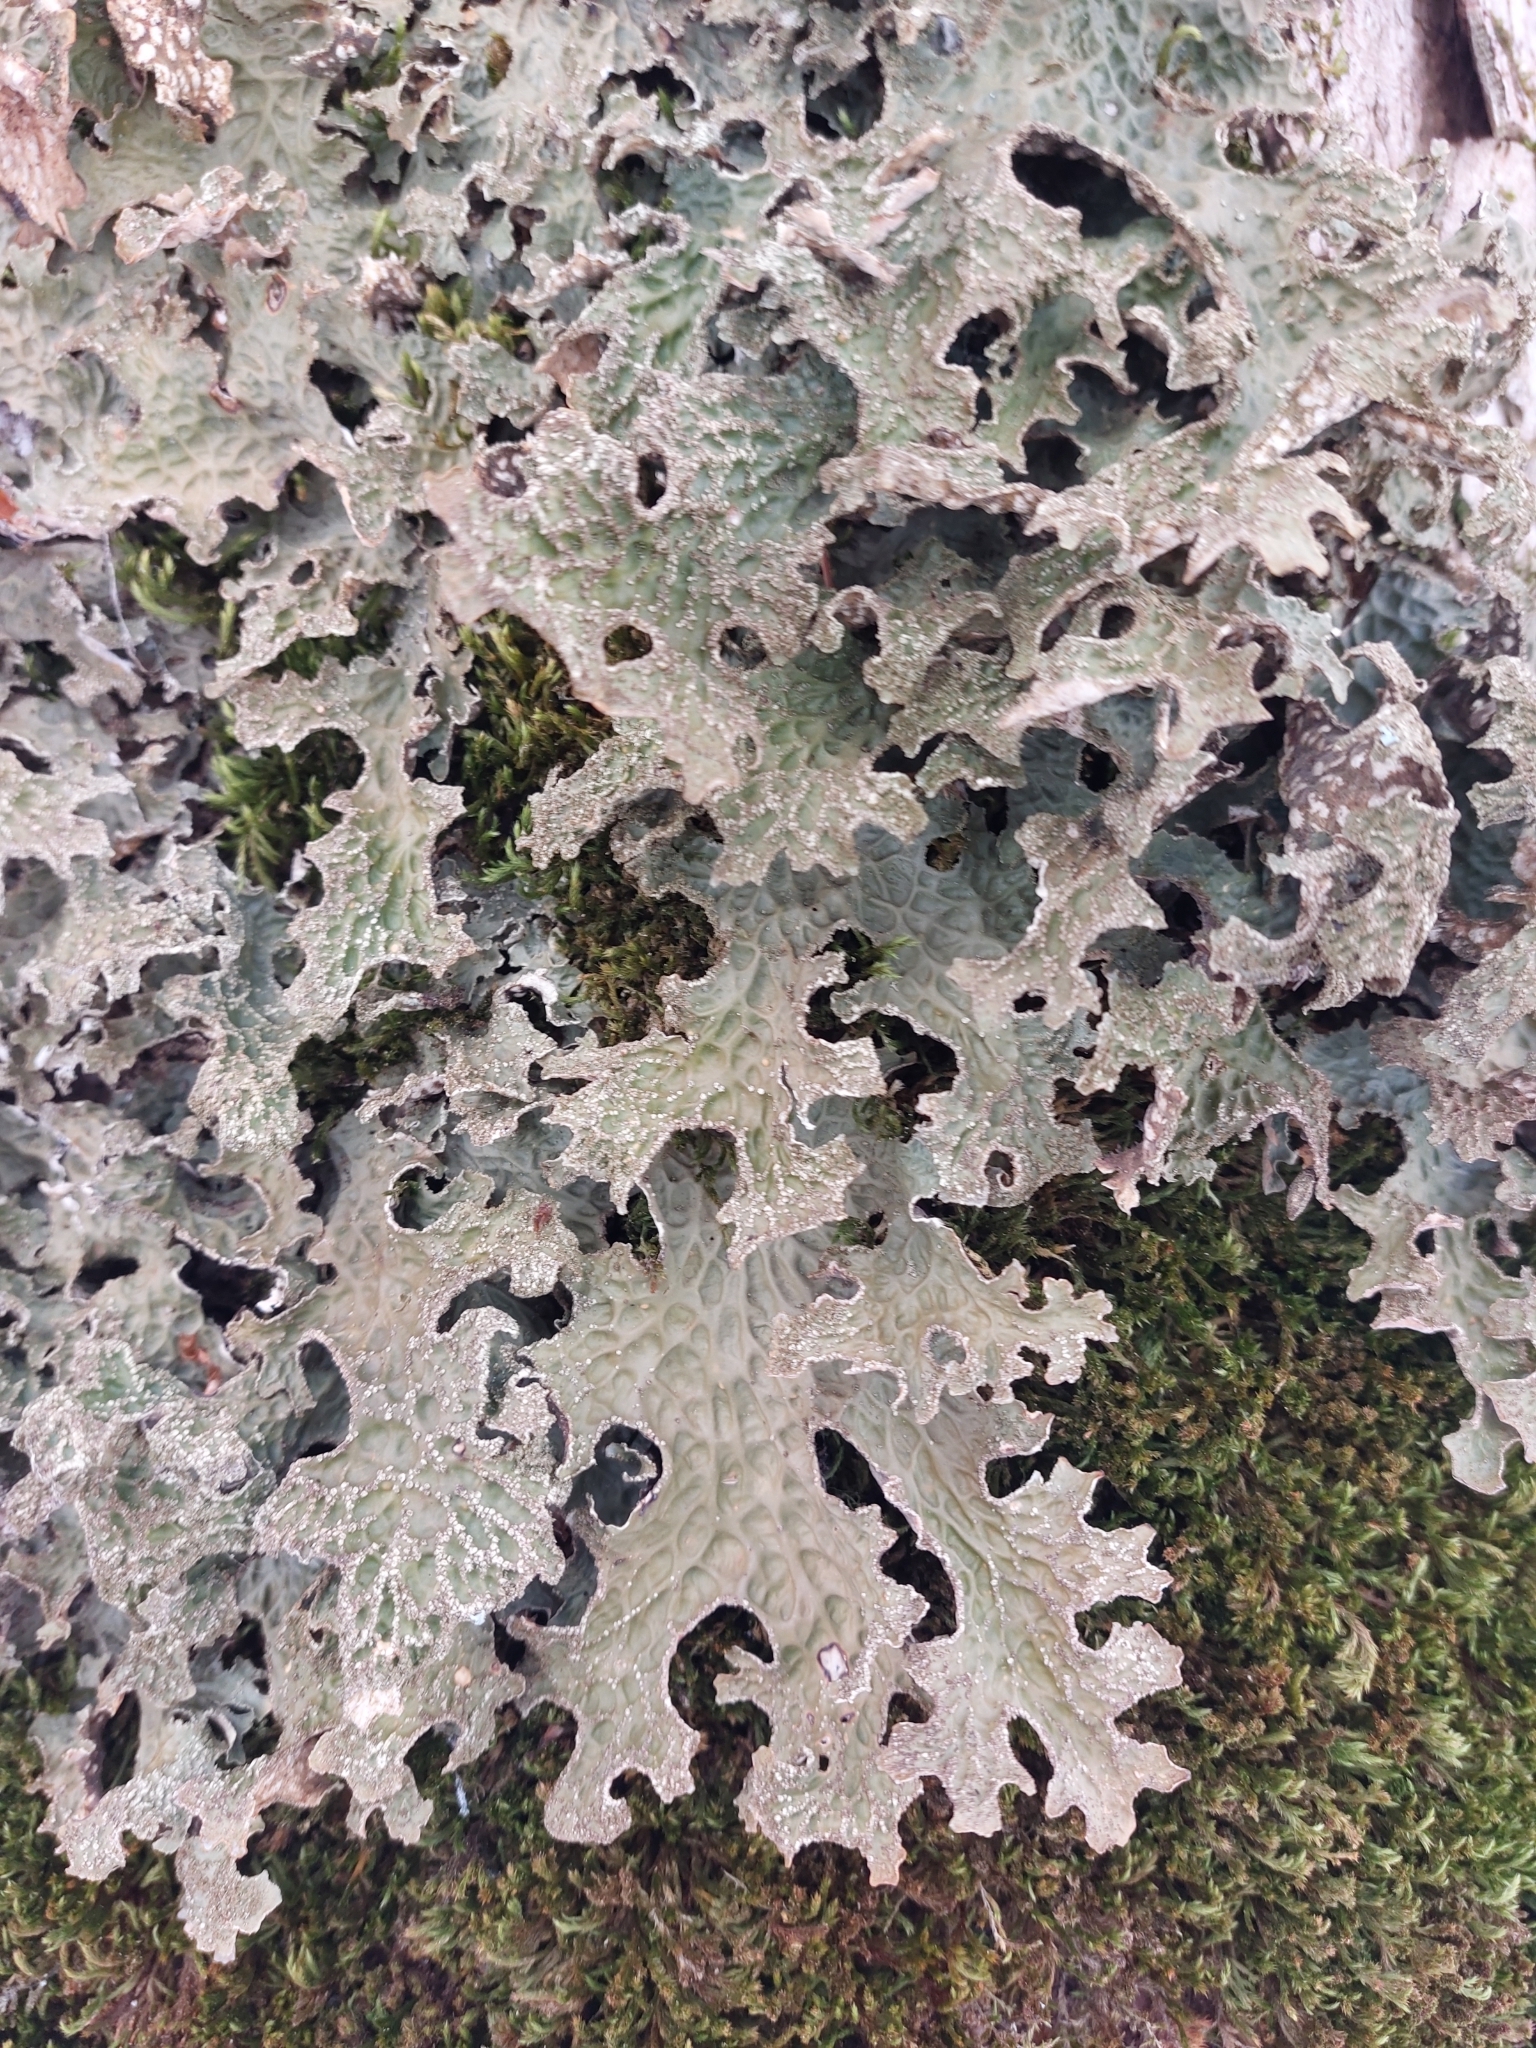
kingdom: Fungi
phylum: Ascomycota
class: Lecanoromycetes
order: Peltigerales
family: Lobariaceae
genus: Lobaria
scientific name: Lobaria pulmonaria
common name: Lungwort
